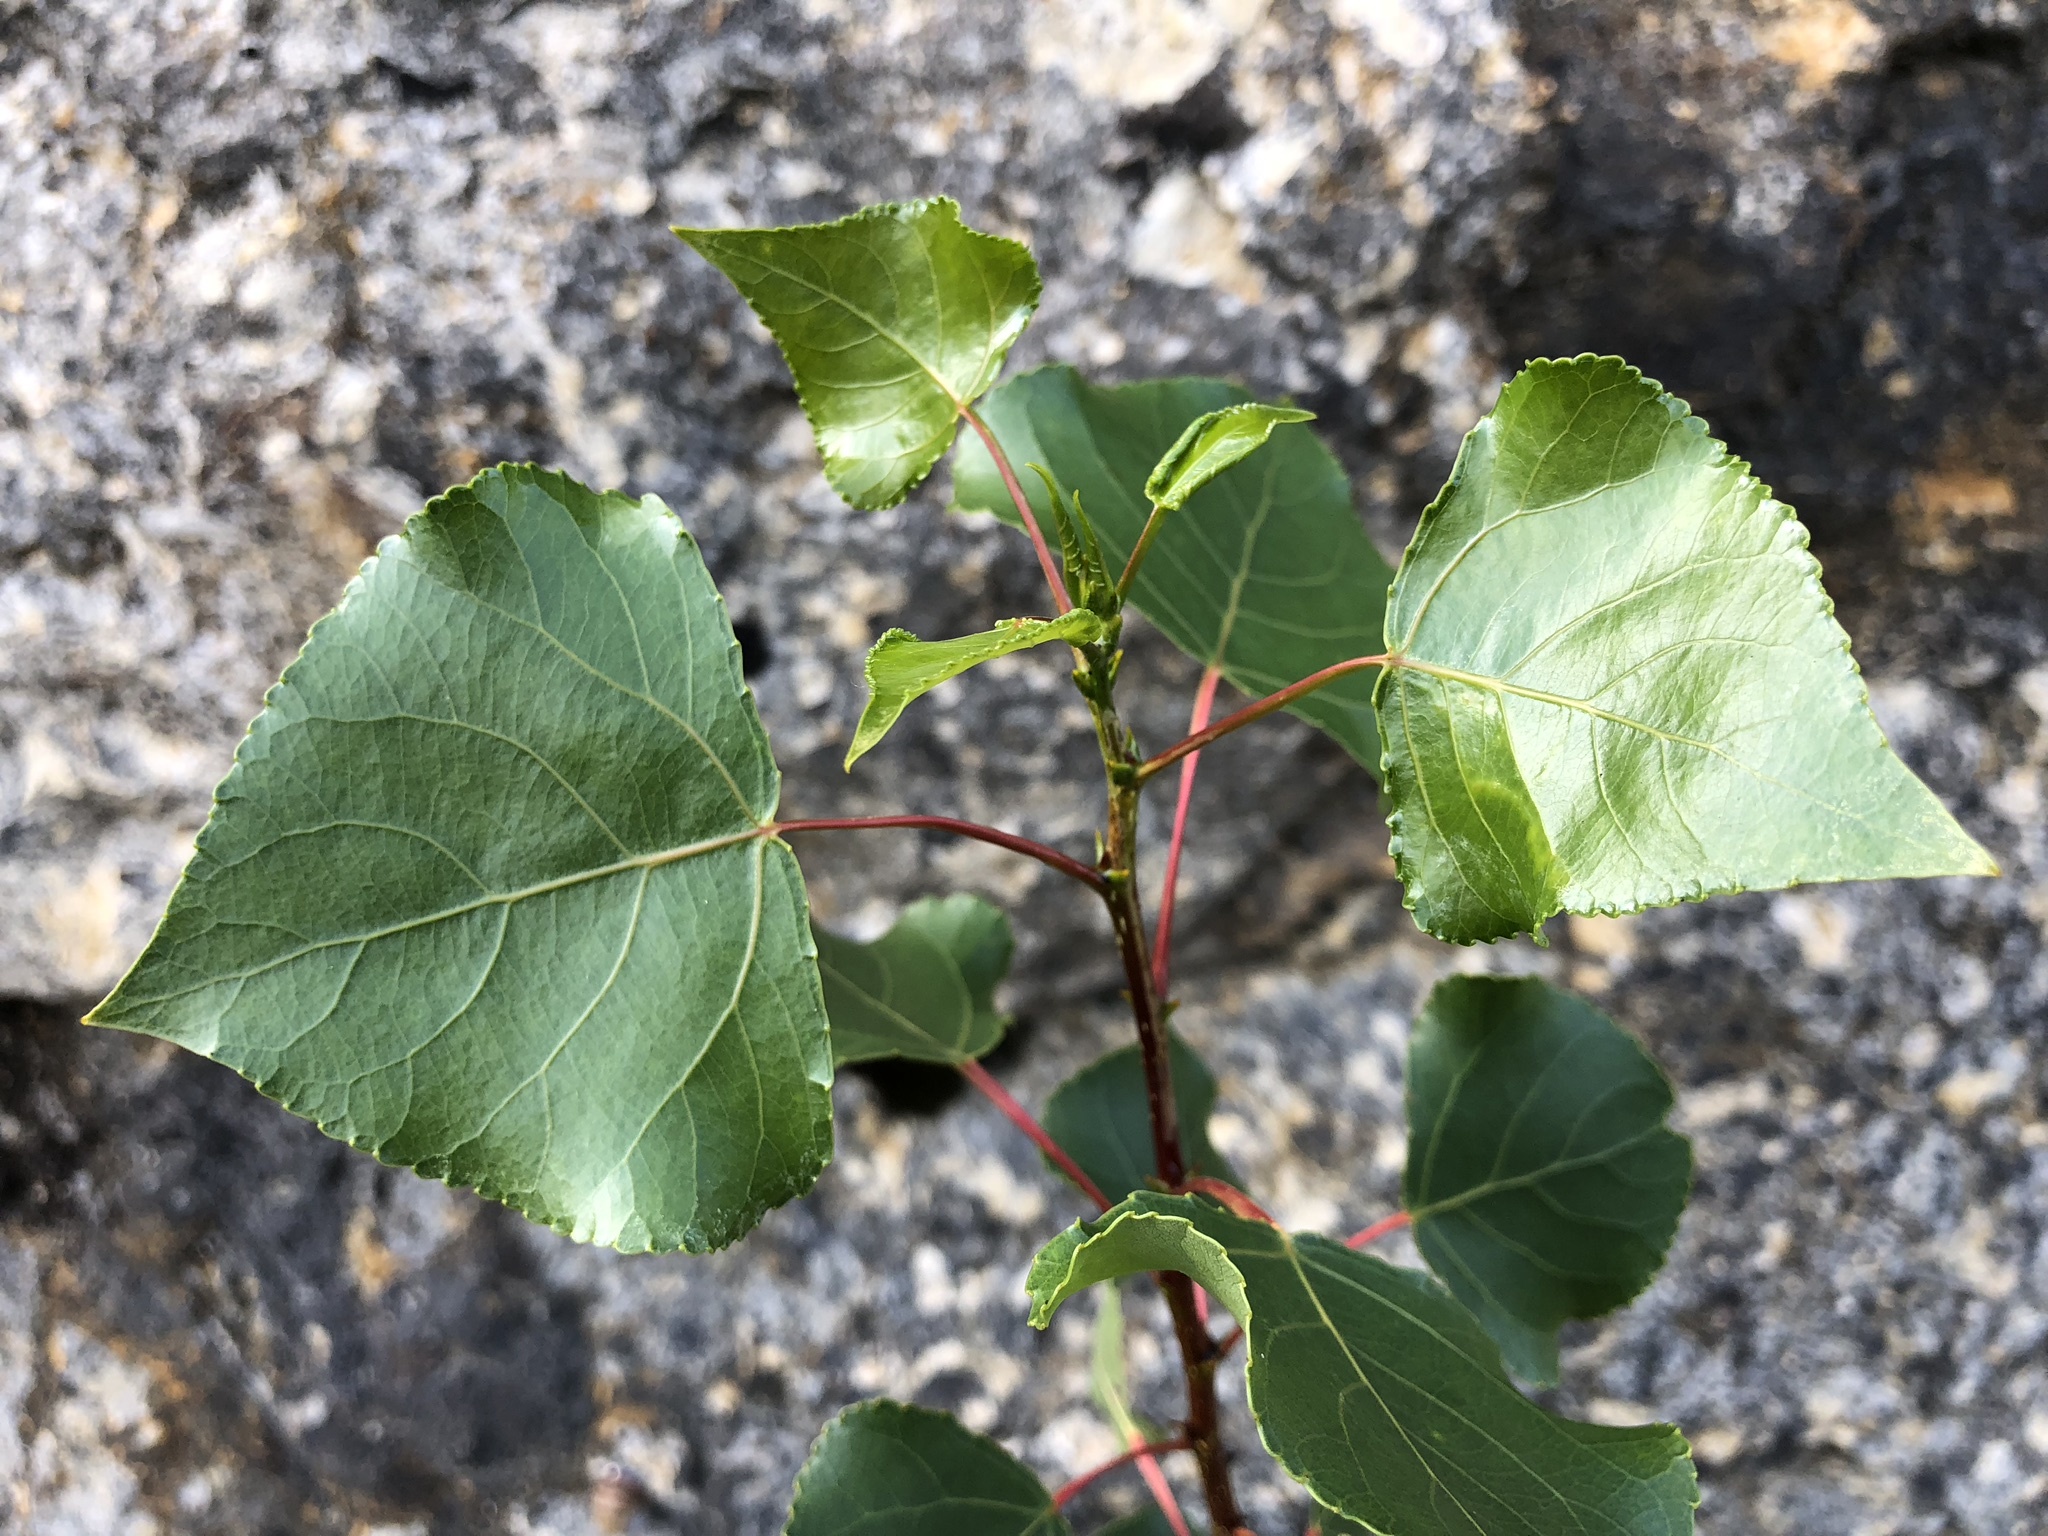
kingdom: Plantae
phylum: Tracheophyta
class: Magnoliopsida
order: Malpighiales
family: Salicaceae
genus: Populus
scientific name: Populus nigra
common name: Black poplar
